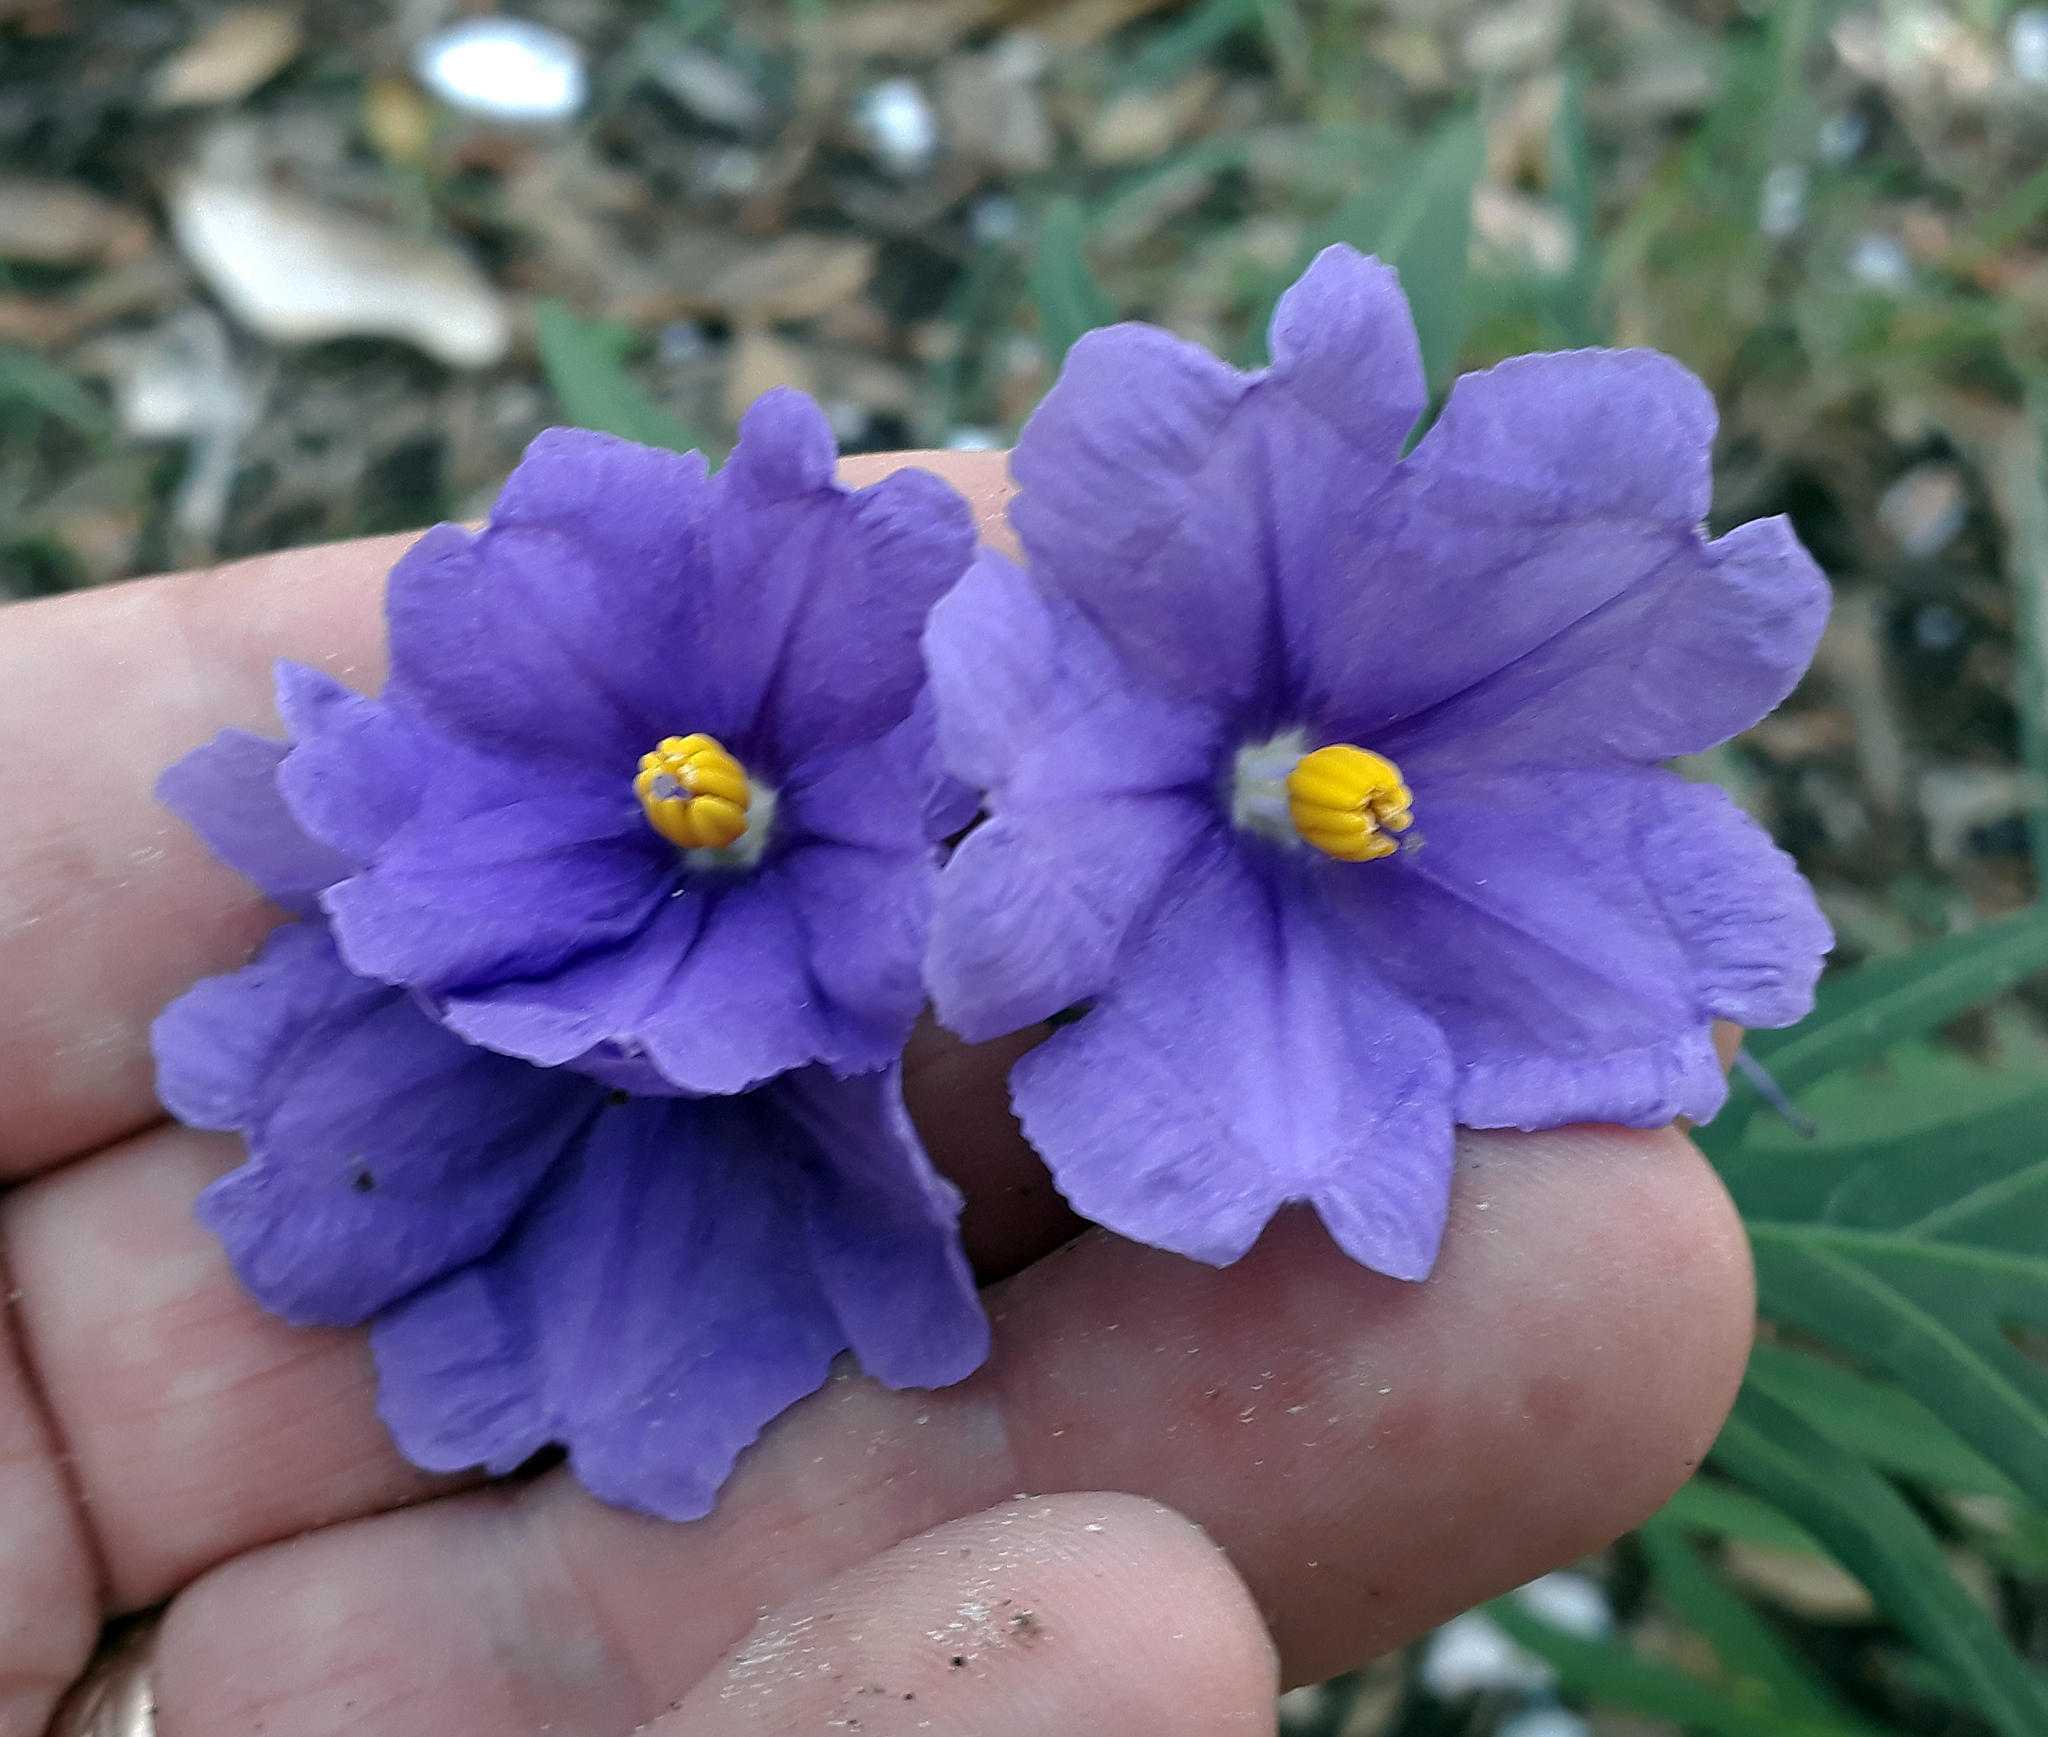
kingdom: Plantae
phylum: Tracheophyta
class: Magnoliopsida
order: Solanales
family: Solanaceae
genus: Solanum
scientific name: Solanum laciniatum
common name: Kangaroo-apple
